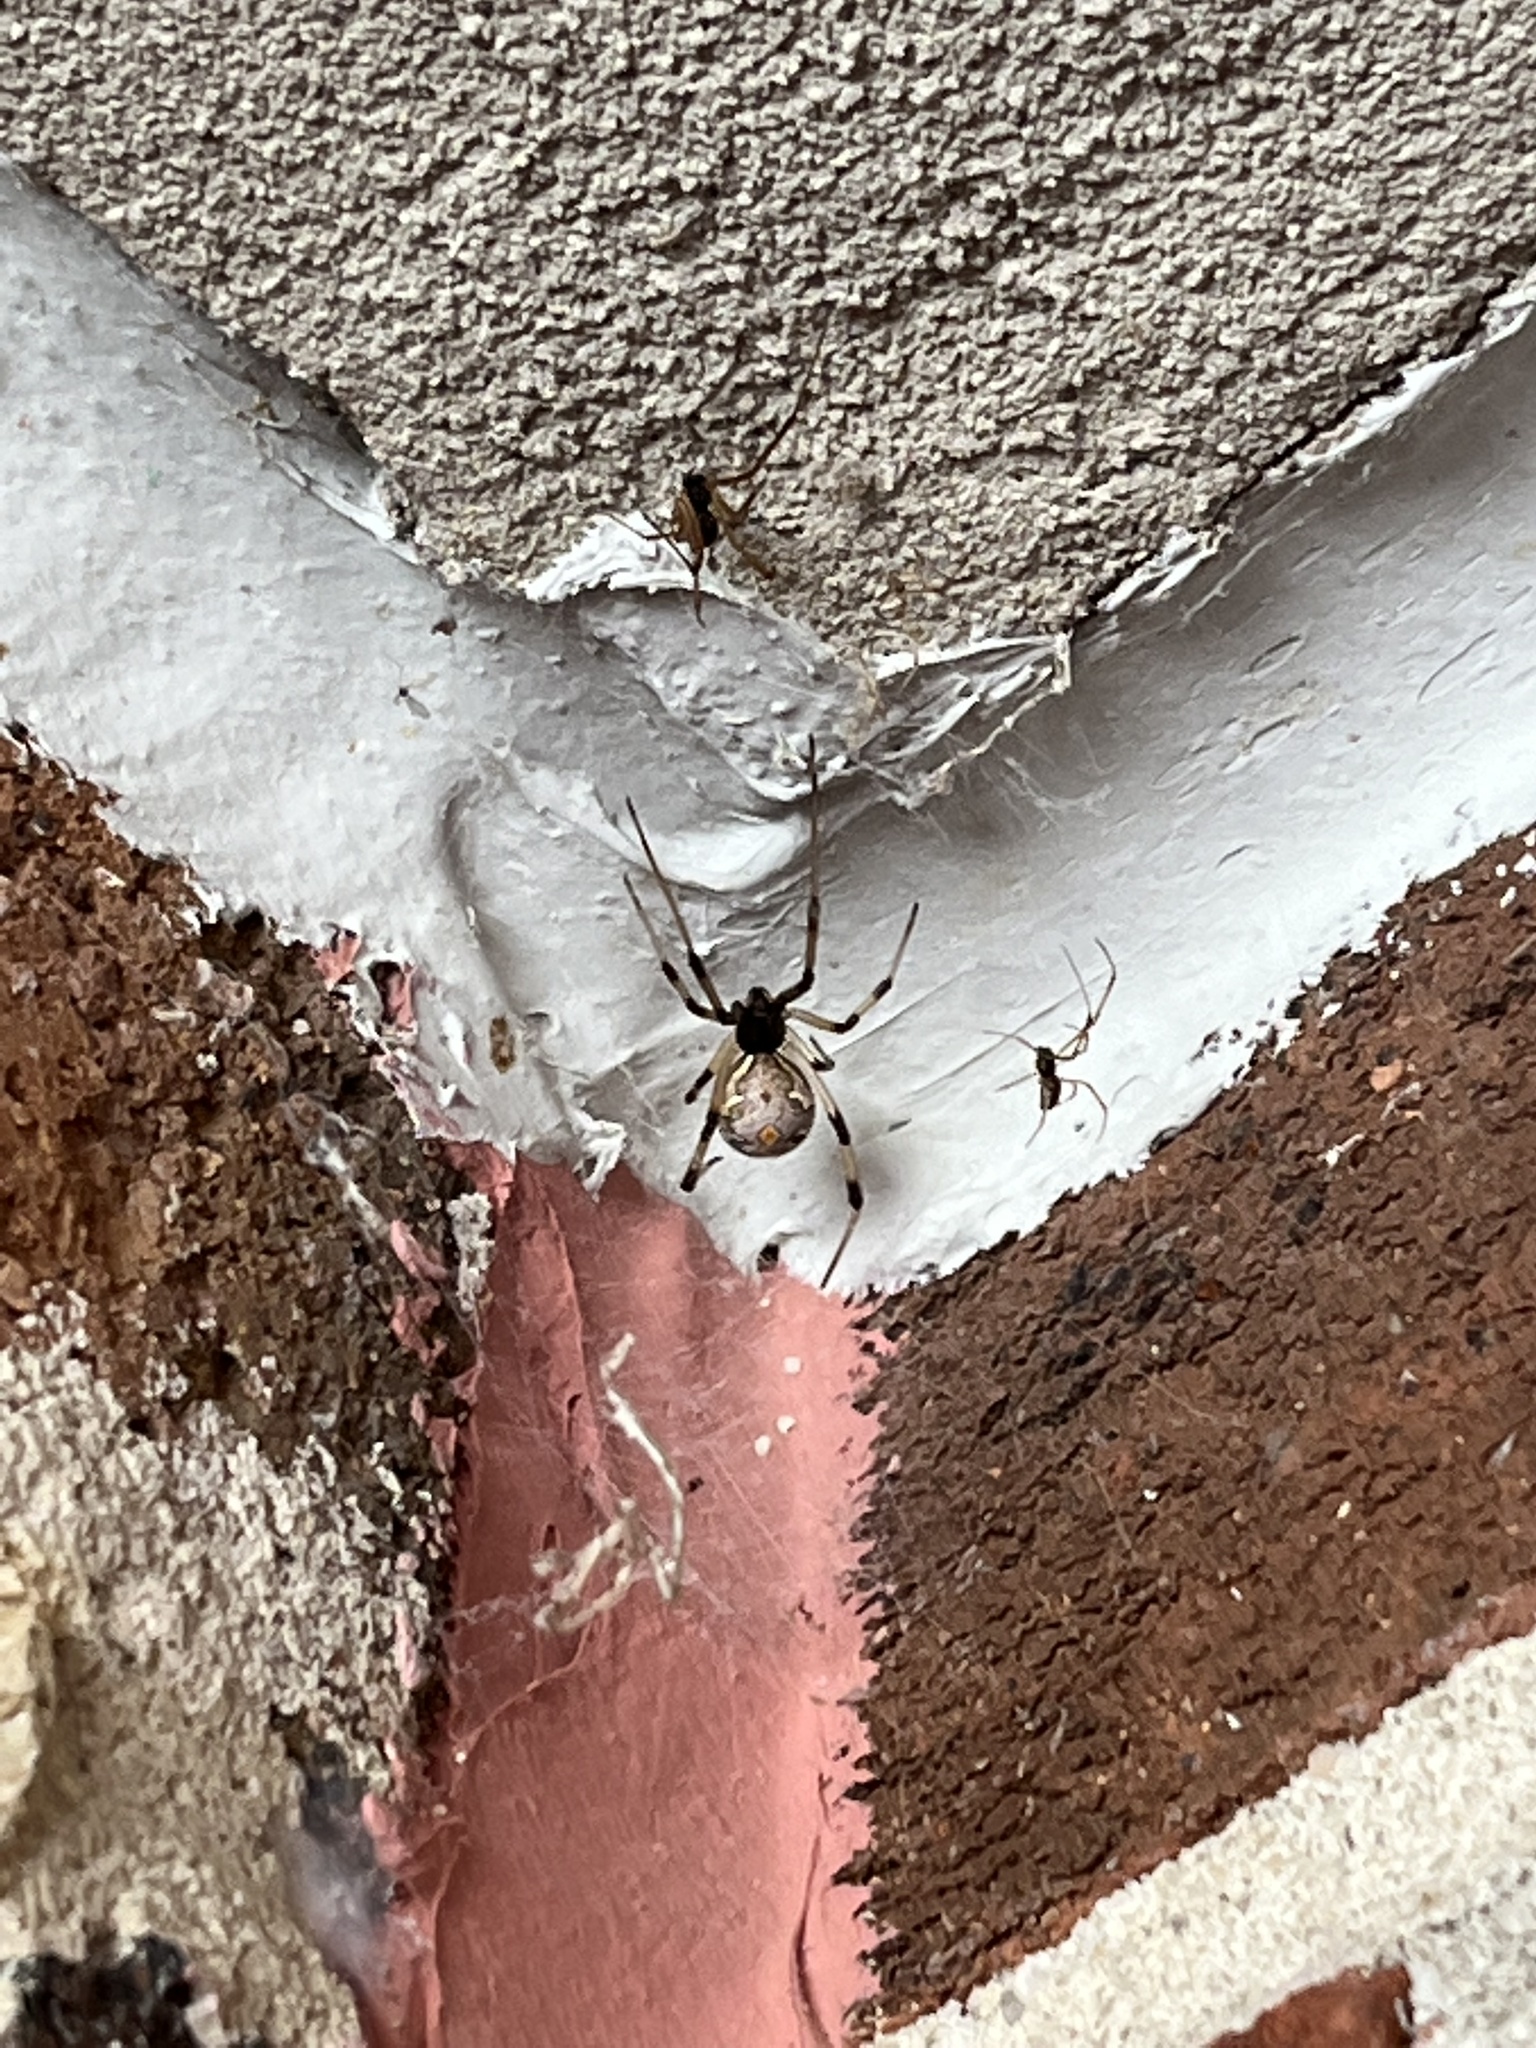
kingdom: Animalia
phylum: Arthropoda
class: Arachnida
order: Araneae
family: Theridiidae
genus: Latrodectus
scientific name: Latrodectus geometricus
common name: Brown widow spider
